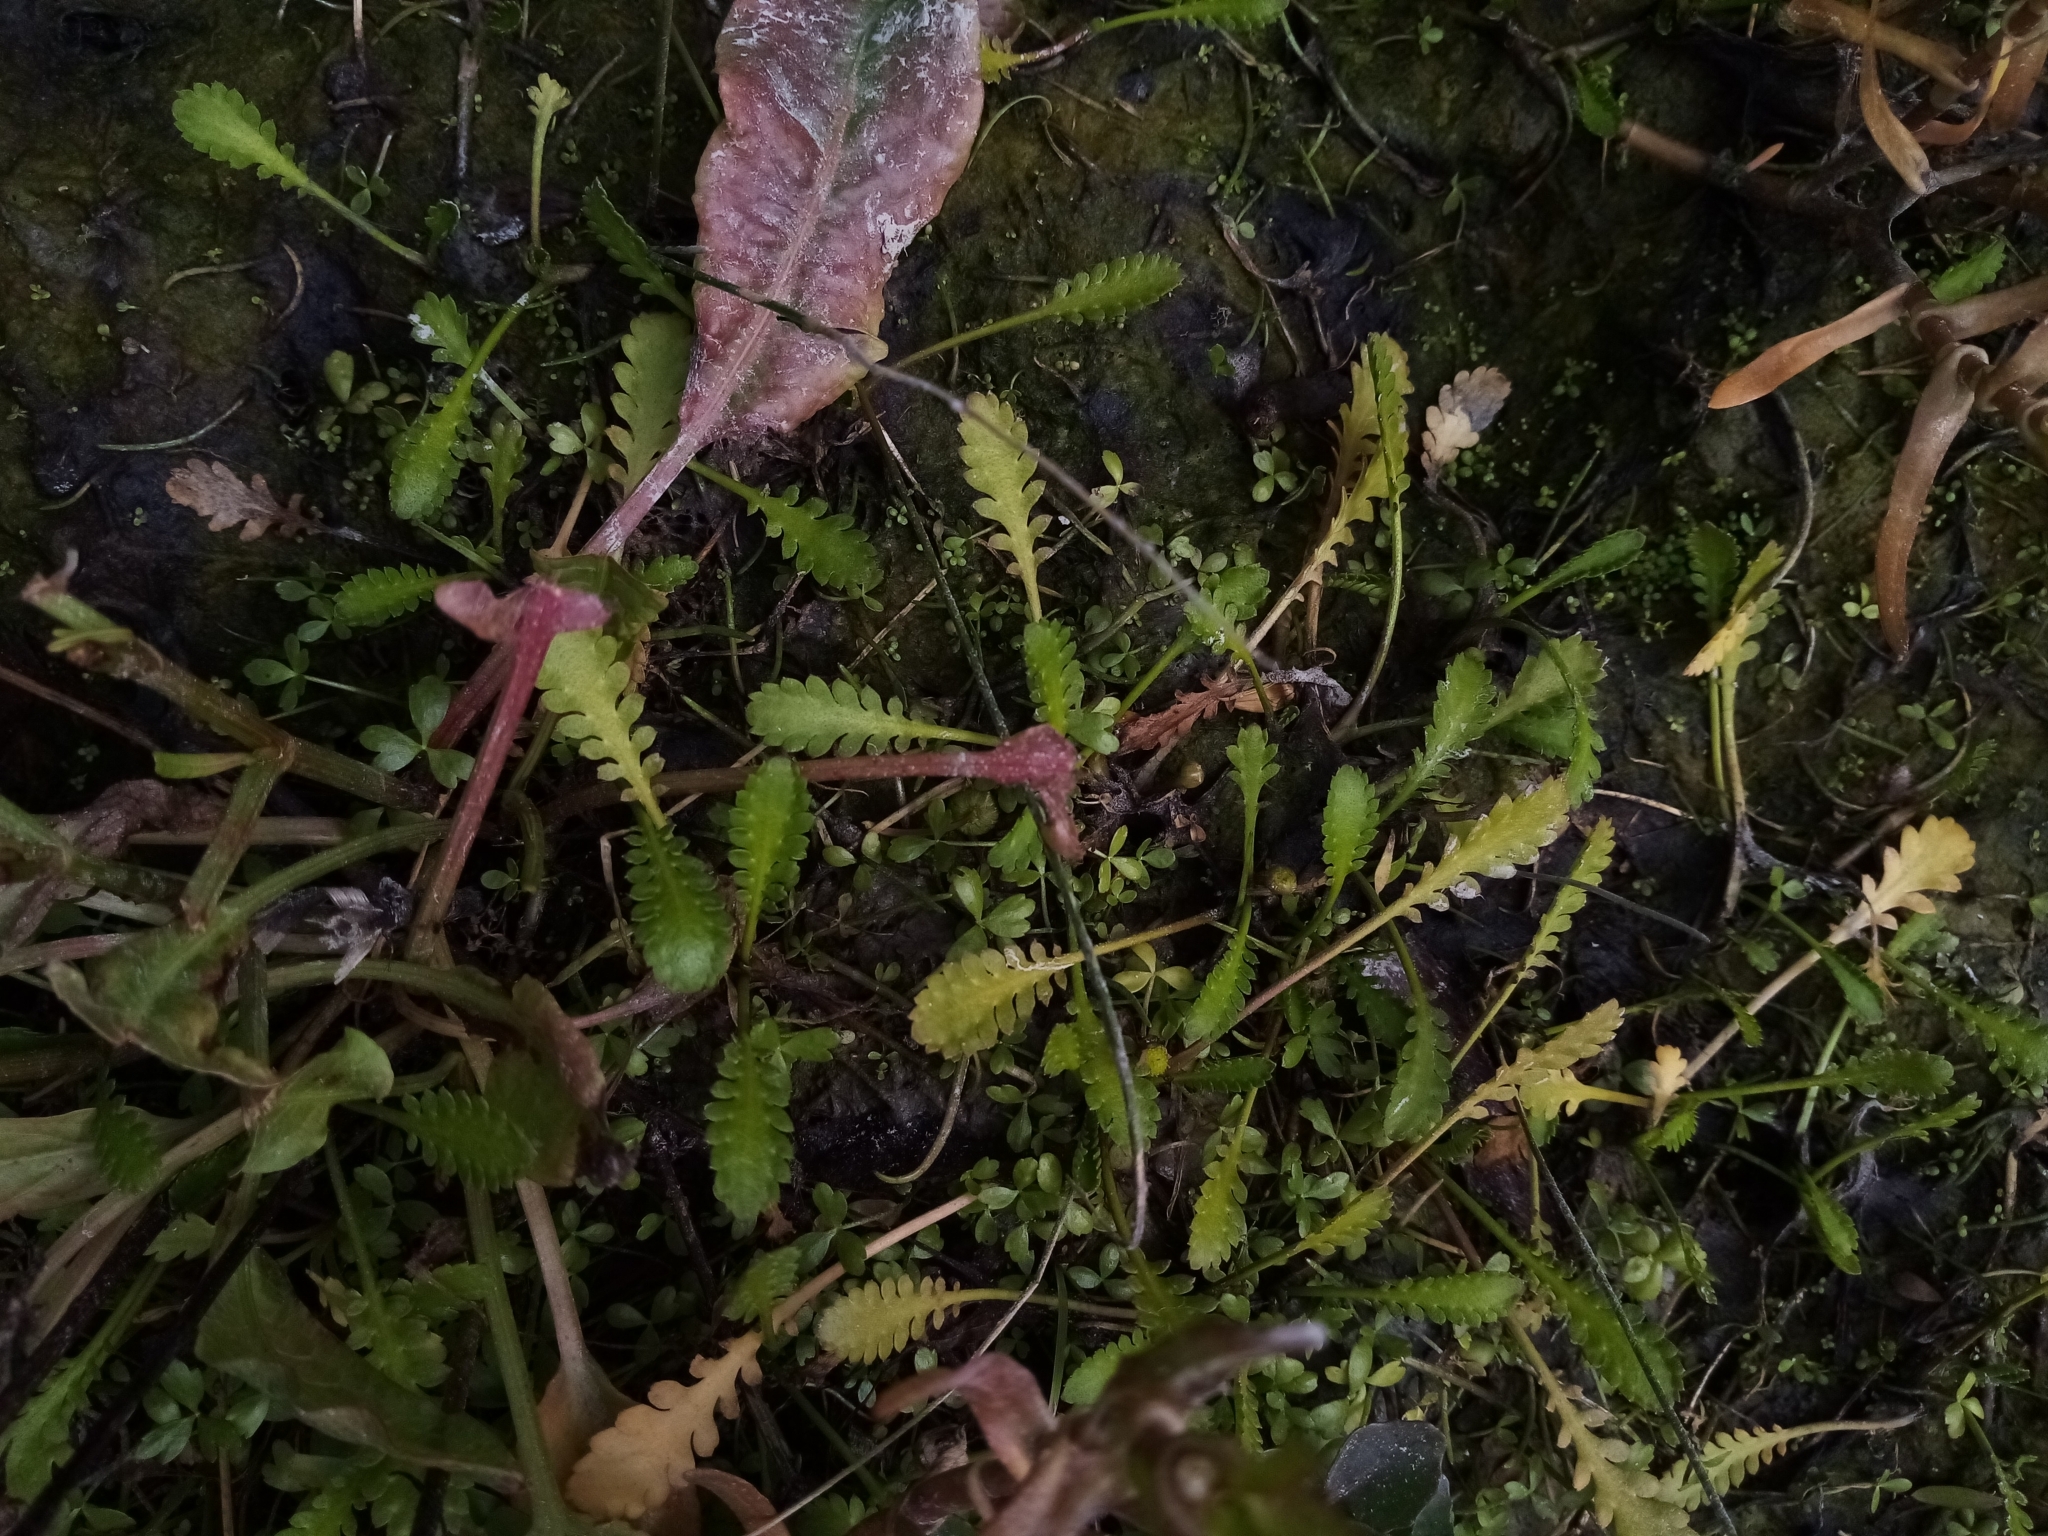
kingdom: Plantae
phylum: Tracheophyta
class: Magnoliopsida
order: Asterales
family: Asteraceae
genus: Leptinella
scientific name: Leptinella dioica
